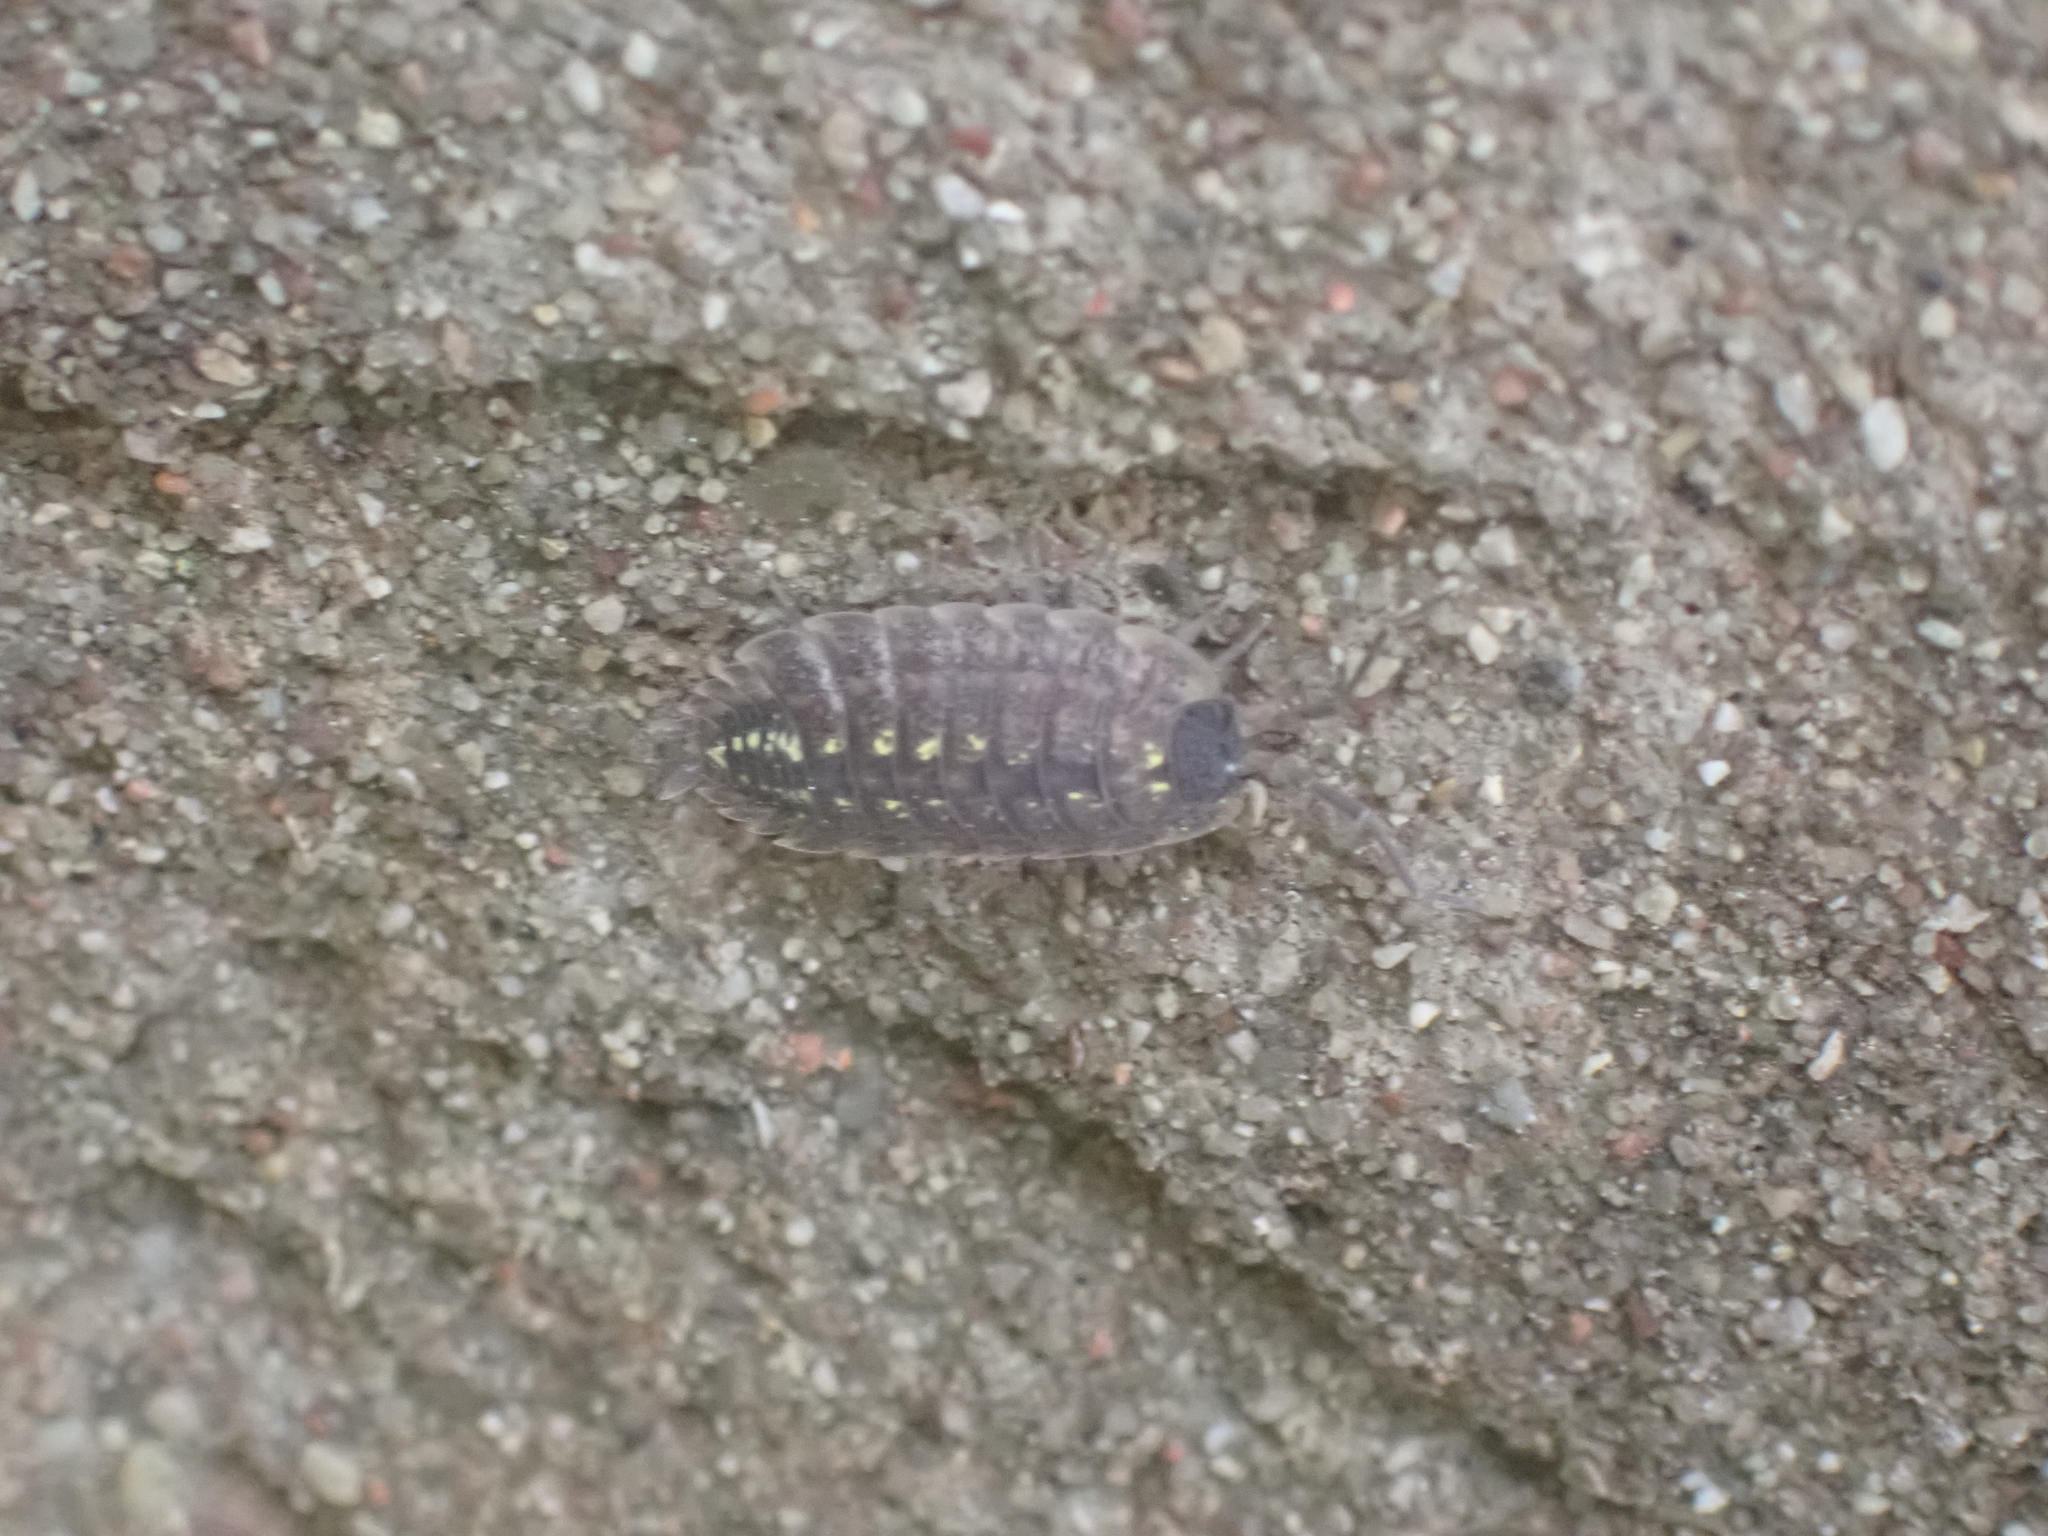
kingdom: Animalia
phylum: Arthropoda
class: Malacostraca
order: Isopoda
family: Porcellionidae
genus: Porcellio
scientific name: Porcellio spinicornis
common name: Painted woodlouse
